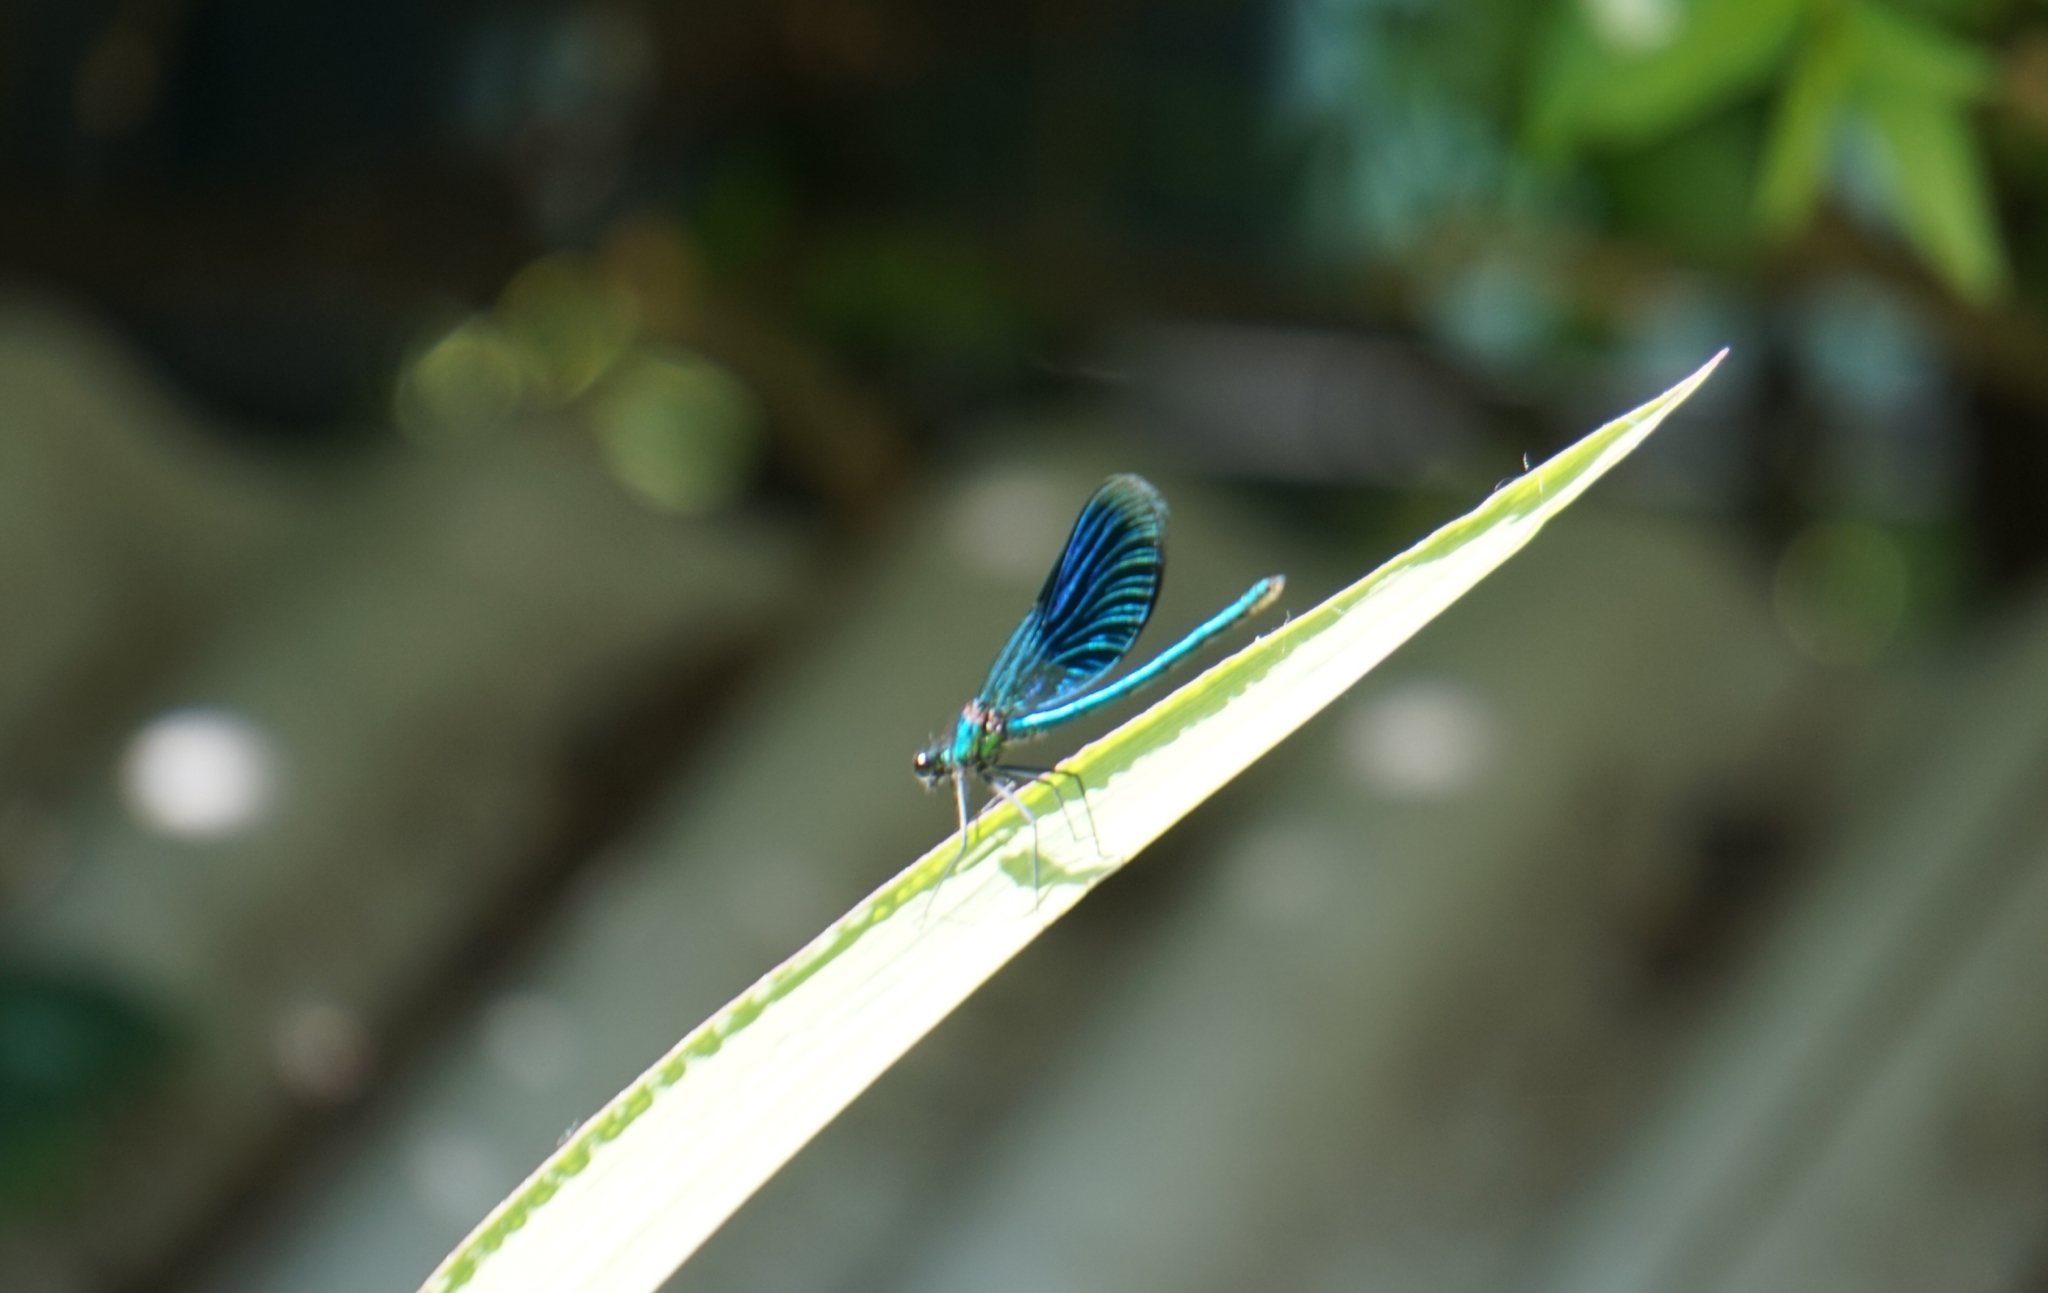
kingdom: Animalia
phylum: Arthropoda
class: Insecta
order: Odonata
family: Calopterygidae
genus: Calopteryx
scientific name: Calopteryx splendens
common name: Banded demoiselle
